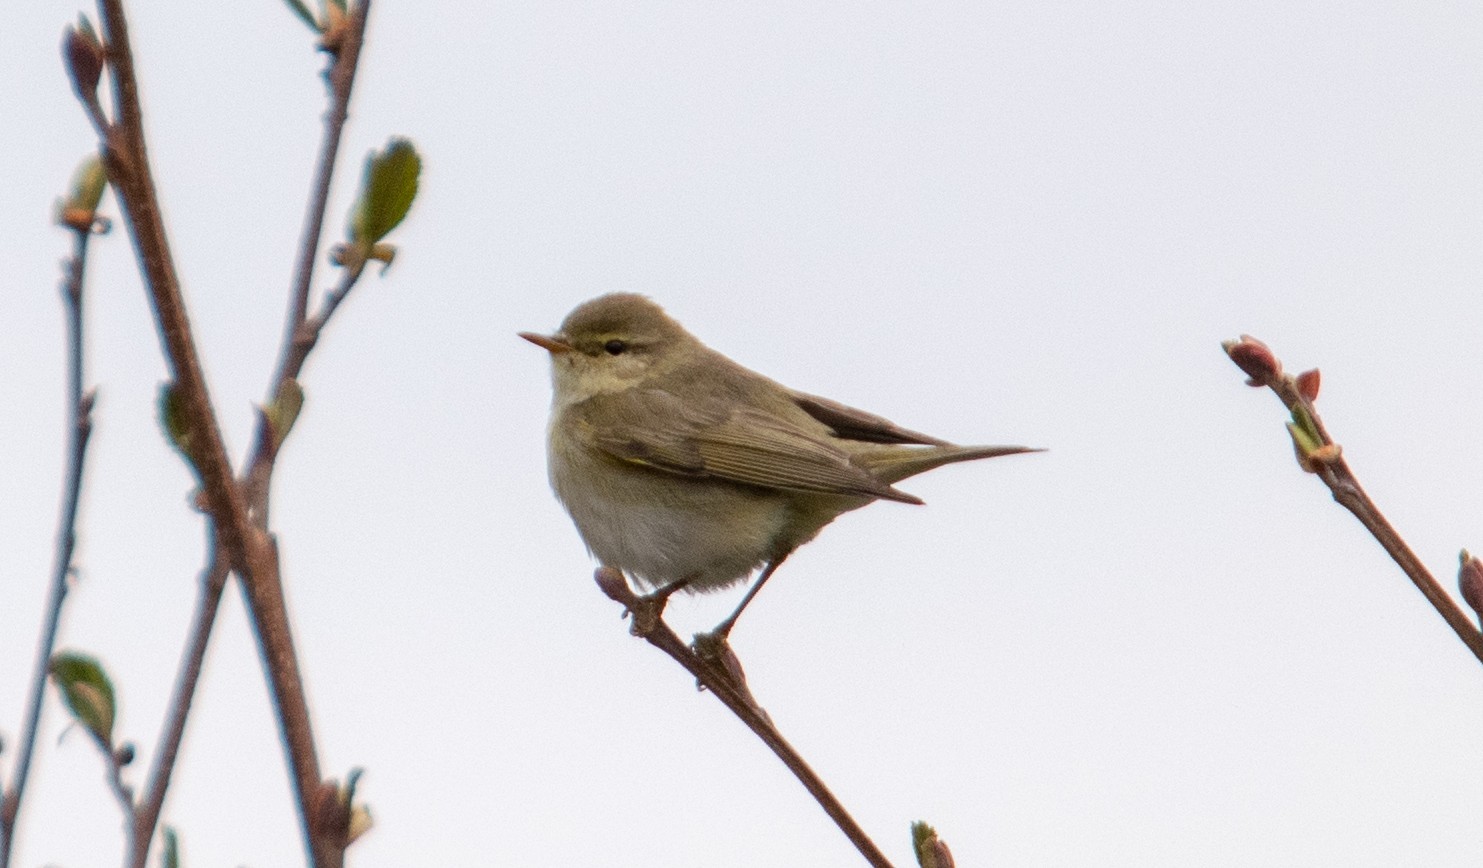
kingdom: Animalia
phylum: Chordata
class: Aves
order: Passeriformes
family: Phylloscopidae
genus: Phylloscopus
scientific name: Phylloscopus trochilus
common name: Willow warbler
